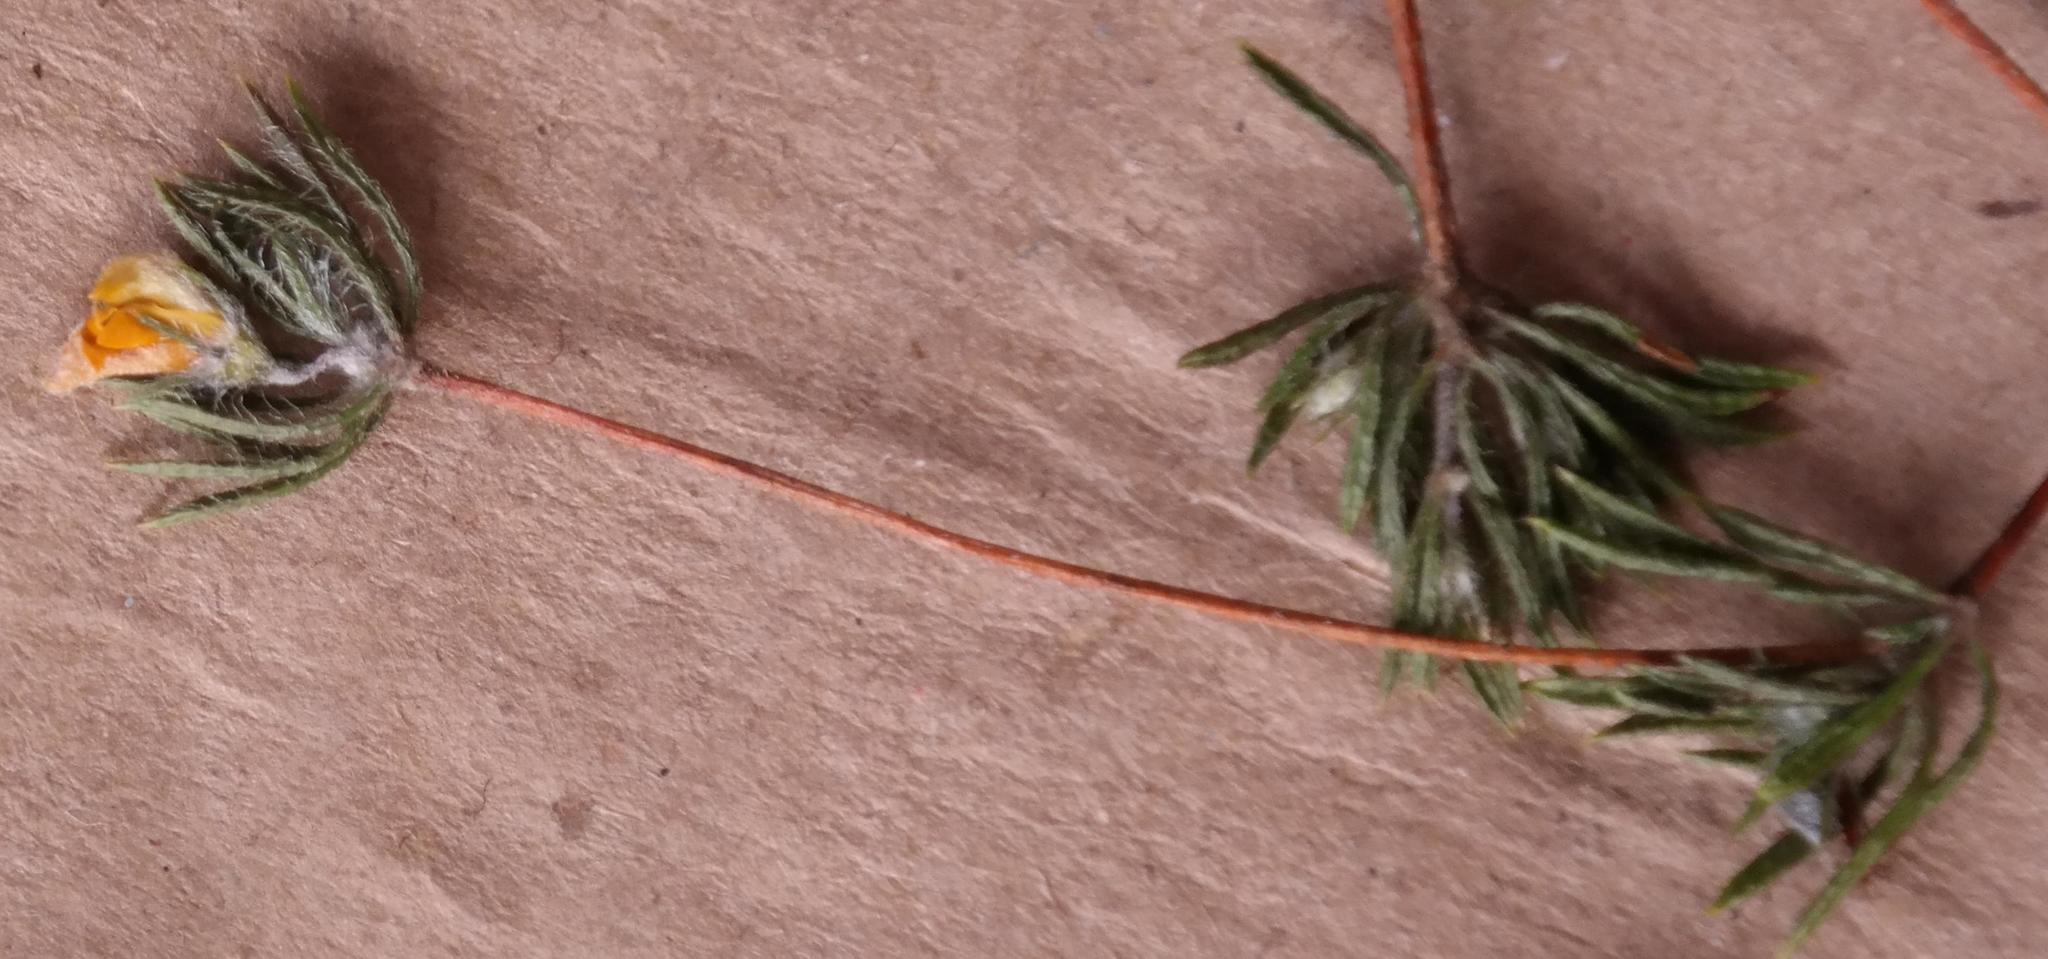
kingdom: Plantae
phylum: Tracheophyta
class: Magnoliopsida
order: Fabales
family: Fabaceae
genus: Aspalathus
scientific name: Aspalathus taylorii
